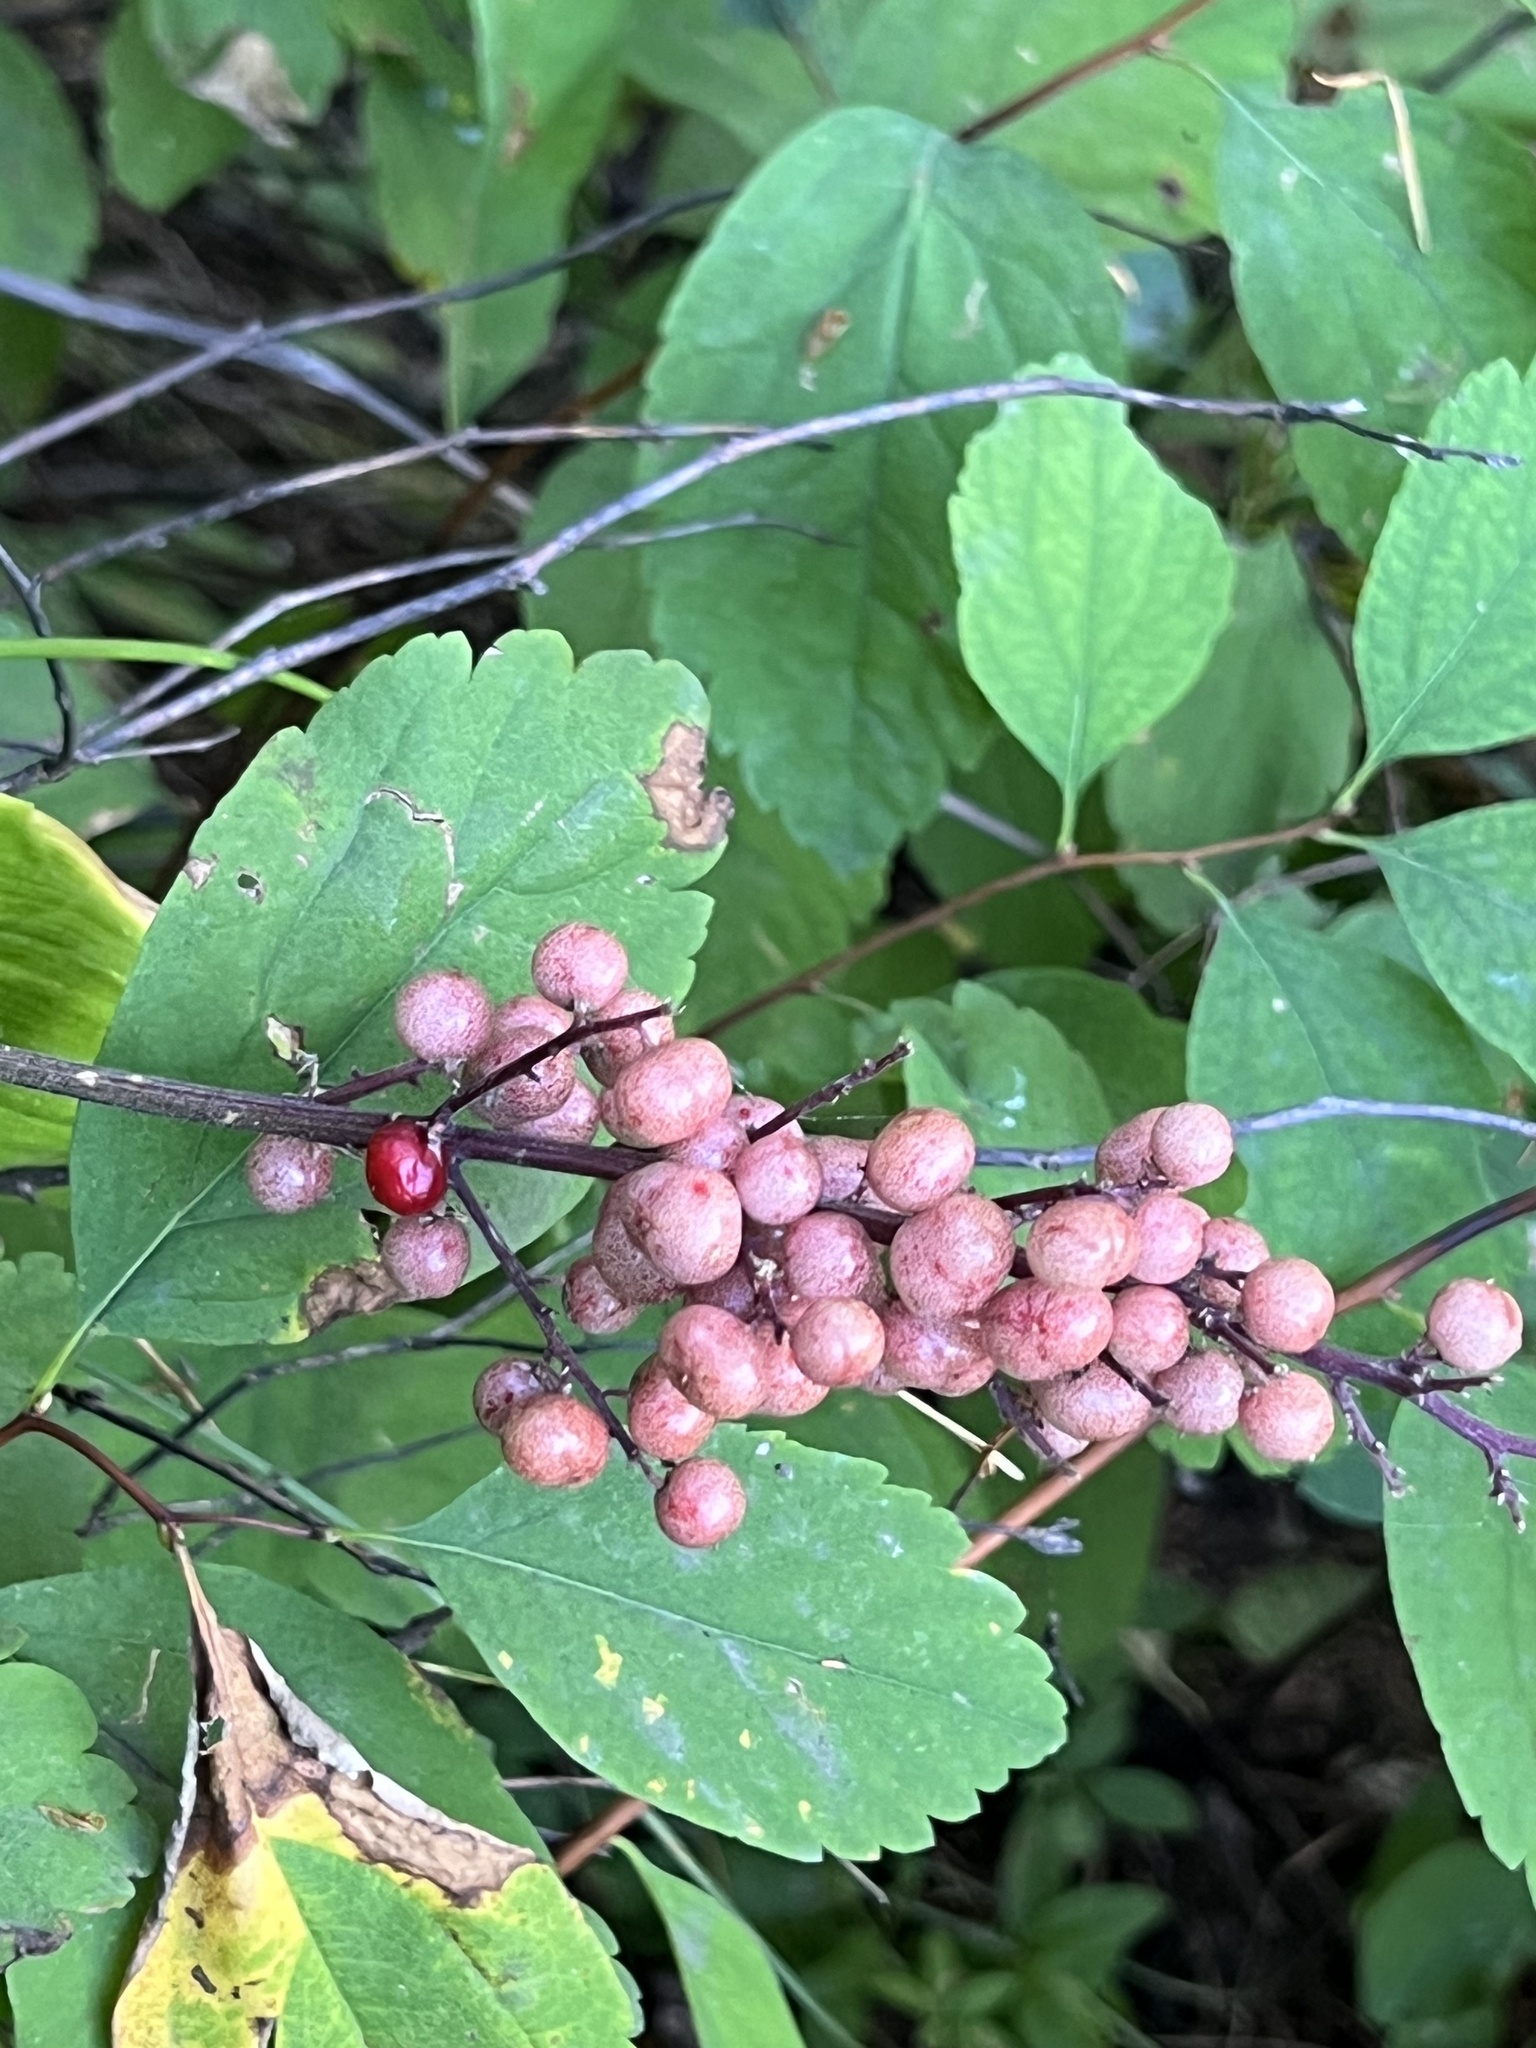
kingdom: Plantae
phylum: Tracheophyta
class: Liliopsida
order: Asparagales
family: Asparagaceae
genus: Maianthemum
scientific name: Maianthemum racemosum
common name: False spikenard
